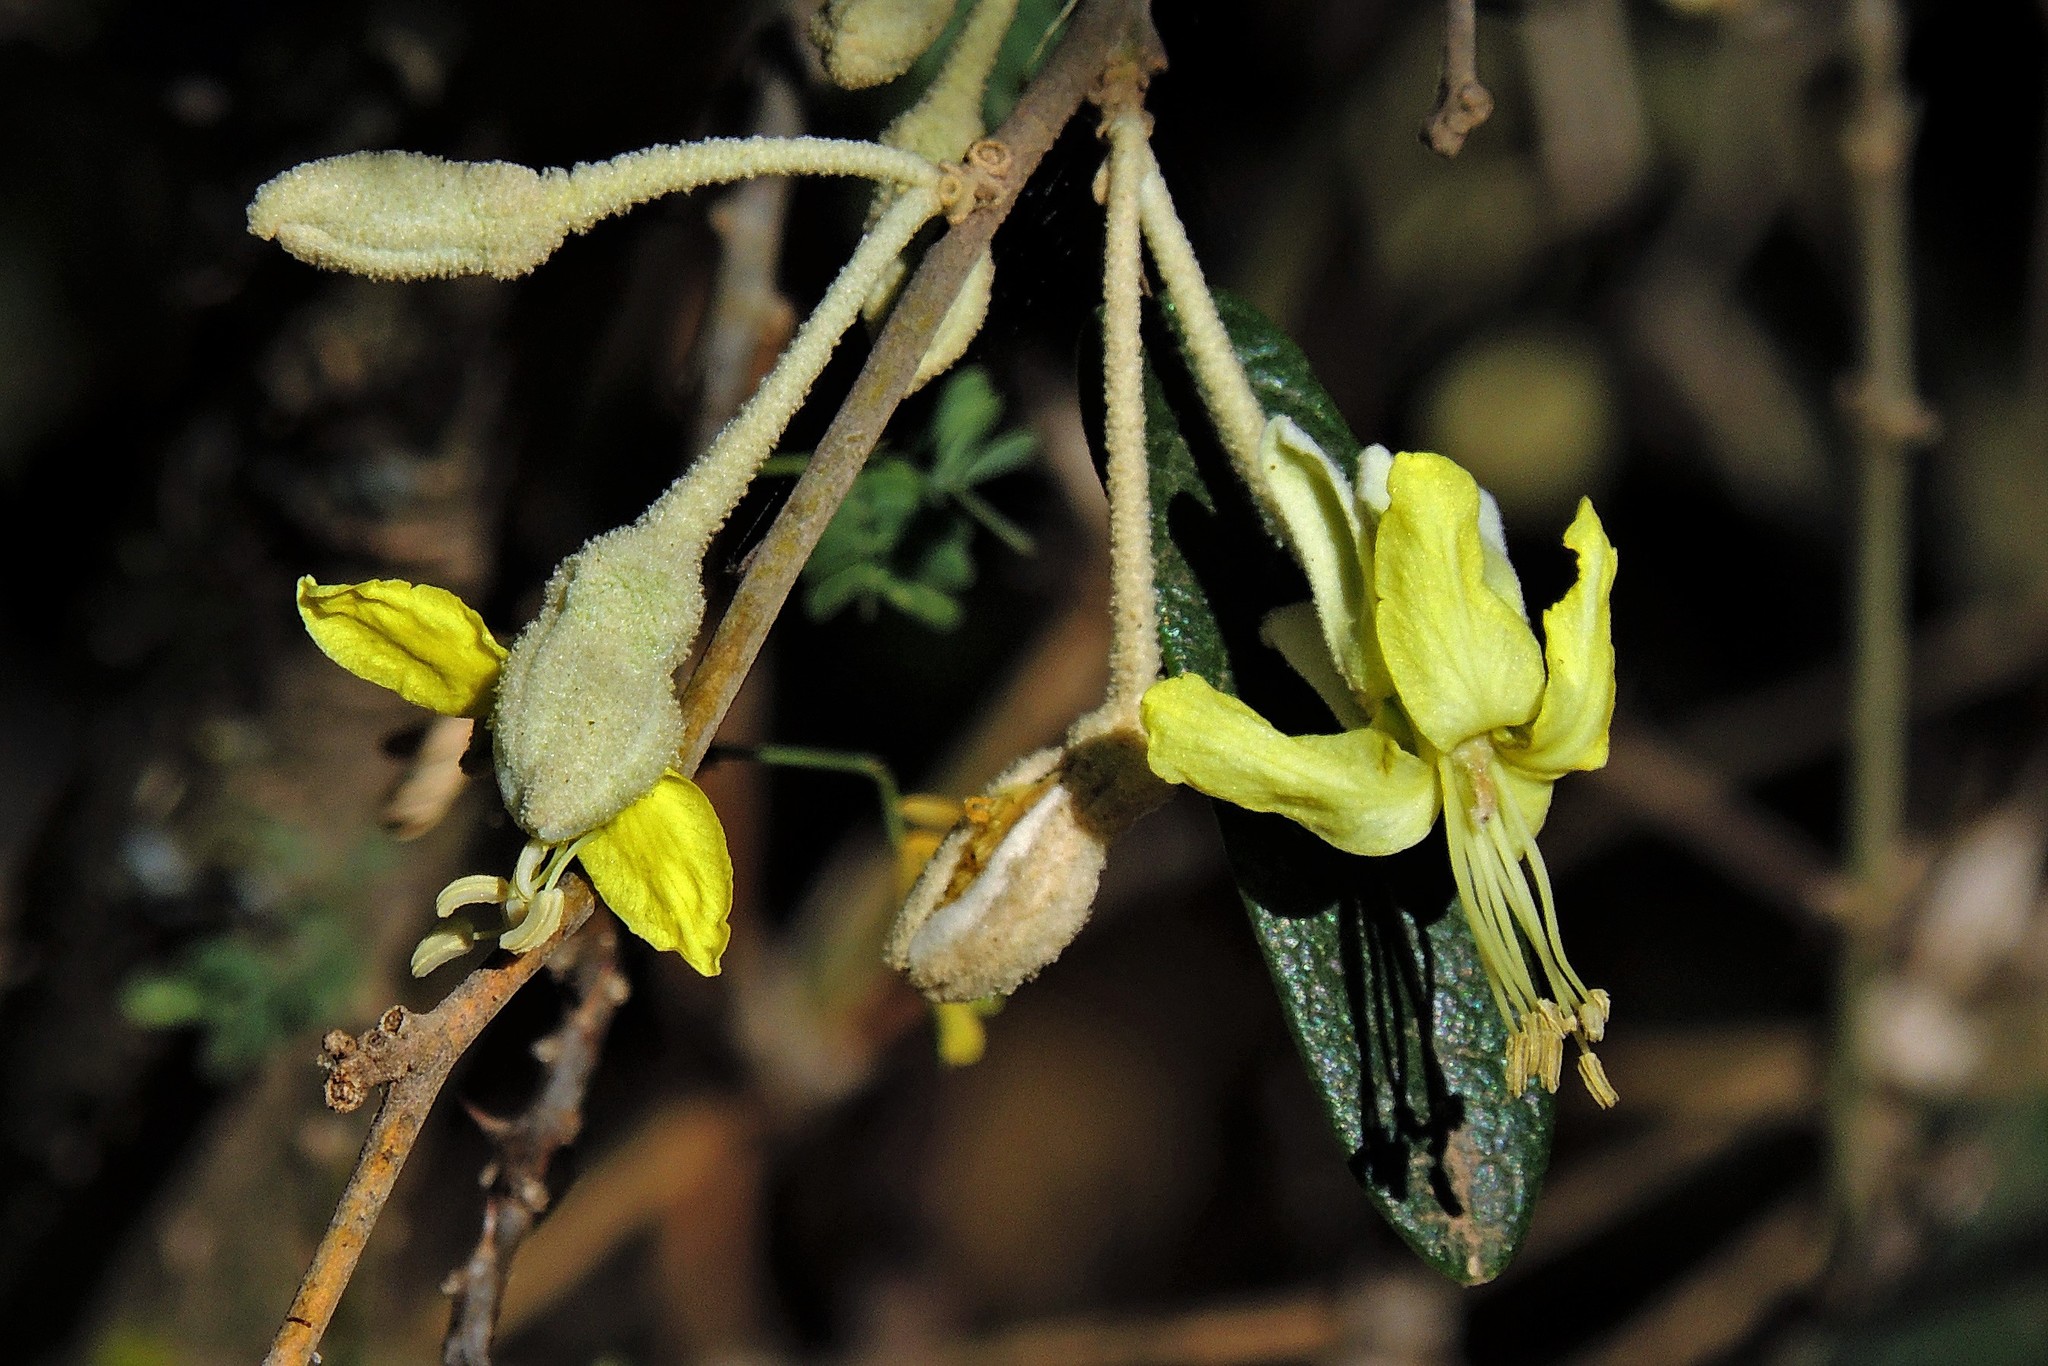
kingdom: Plantae
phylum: Tracheophyta
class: Magnoliopsida
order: Brassicales
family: Capparaceae
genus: Sarcotoxicum
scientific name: Sarcotoxicum salicifolium
